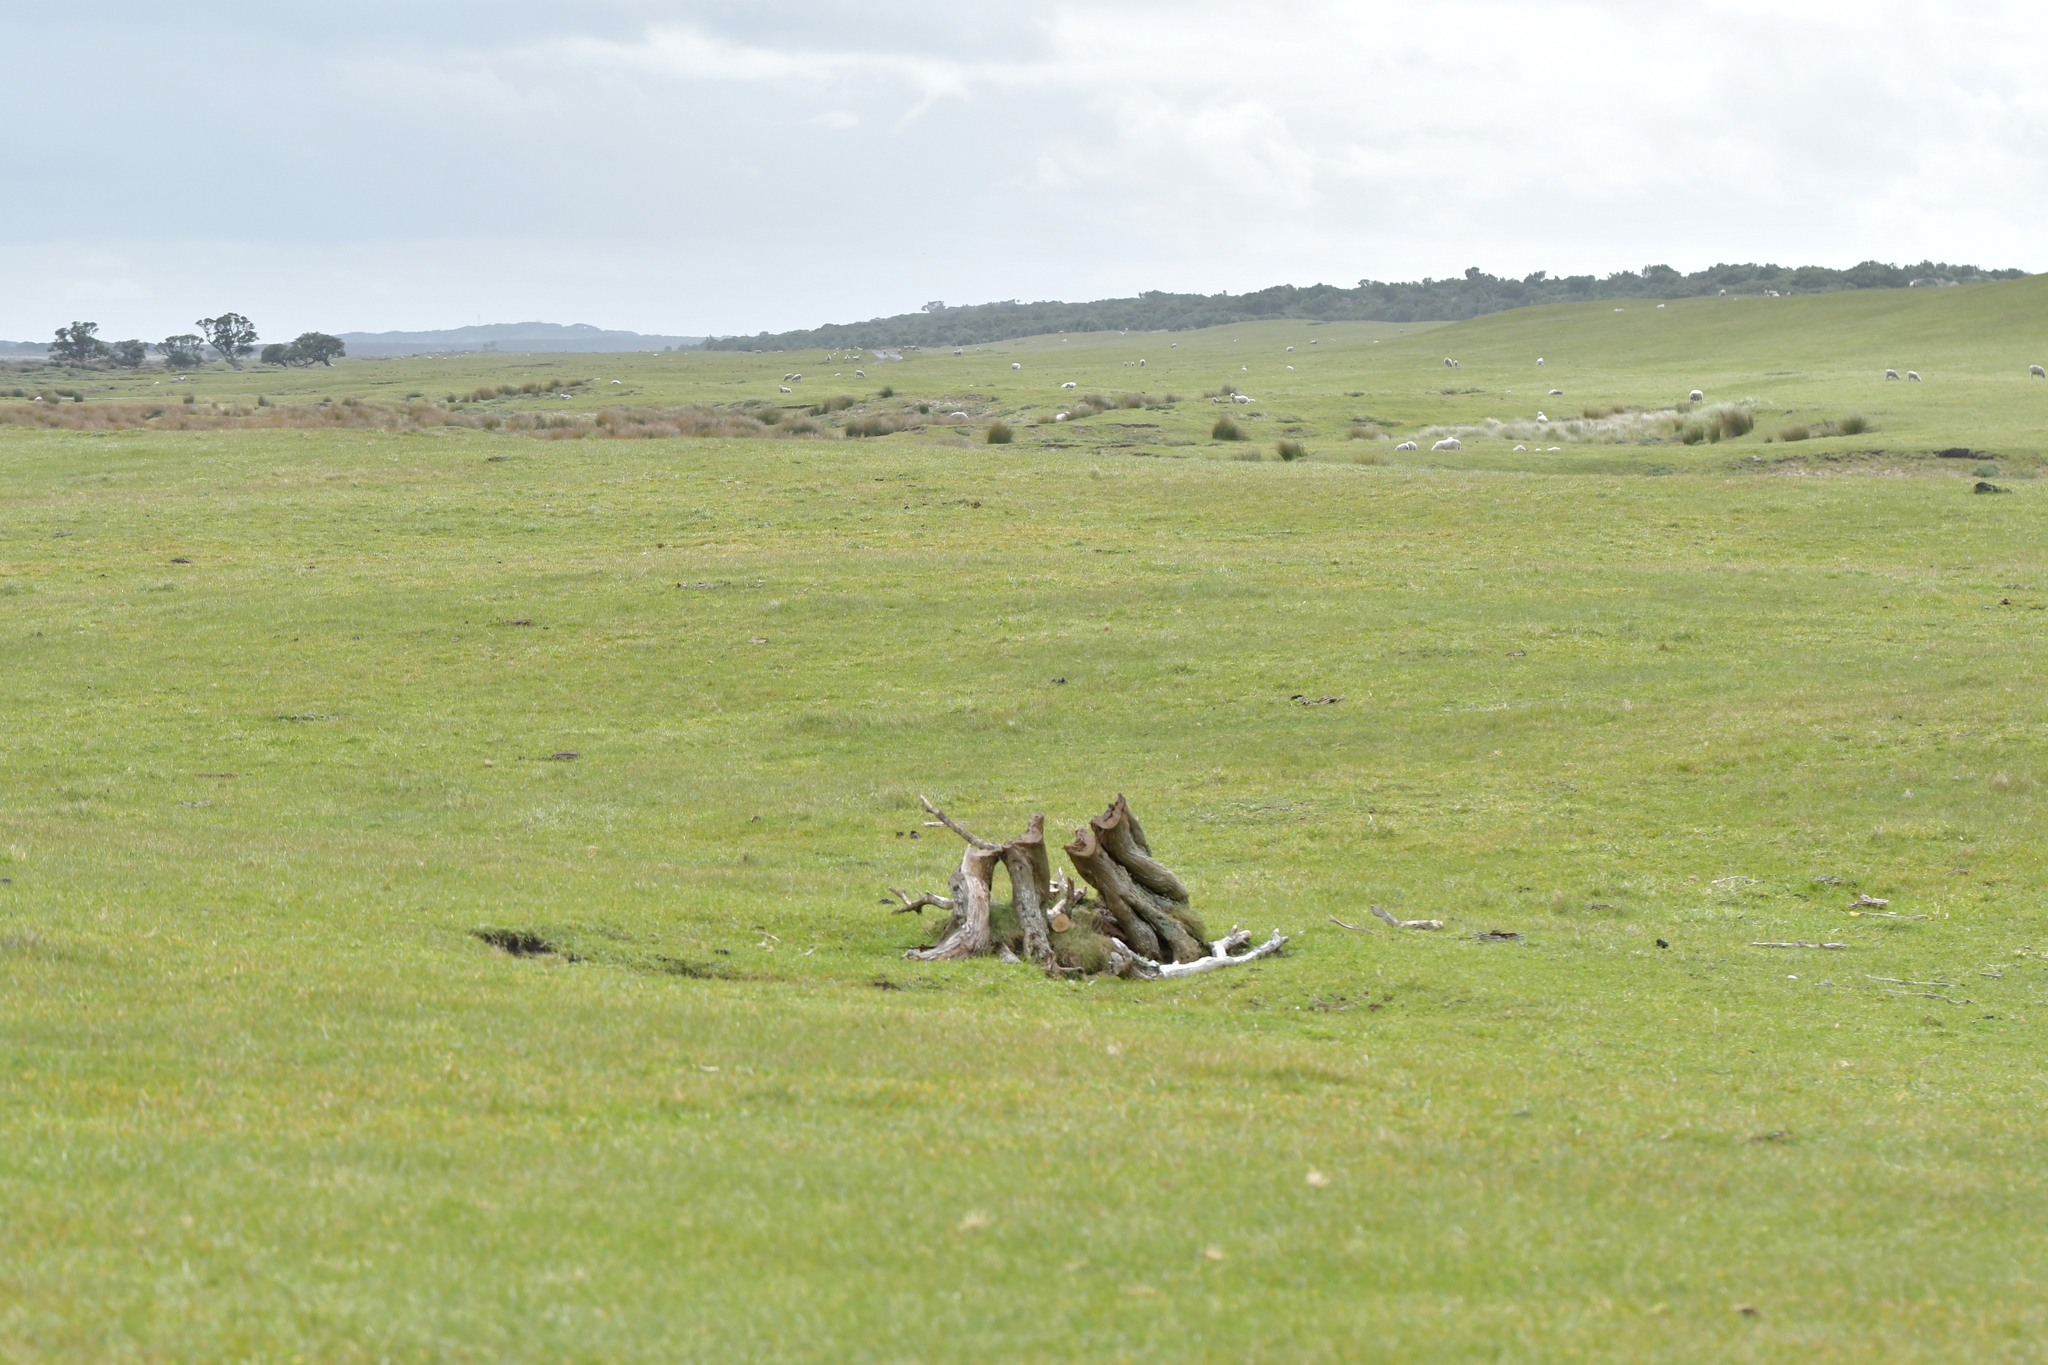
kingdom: Plantae
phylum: Tracheophyta
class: Magnoliopsida
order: Asterales
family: Asteraceae
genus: Olearia
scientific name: Olearia traversiorum
